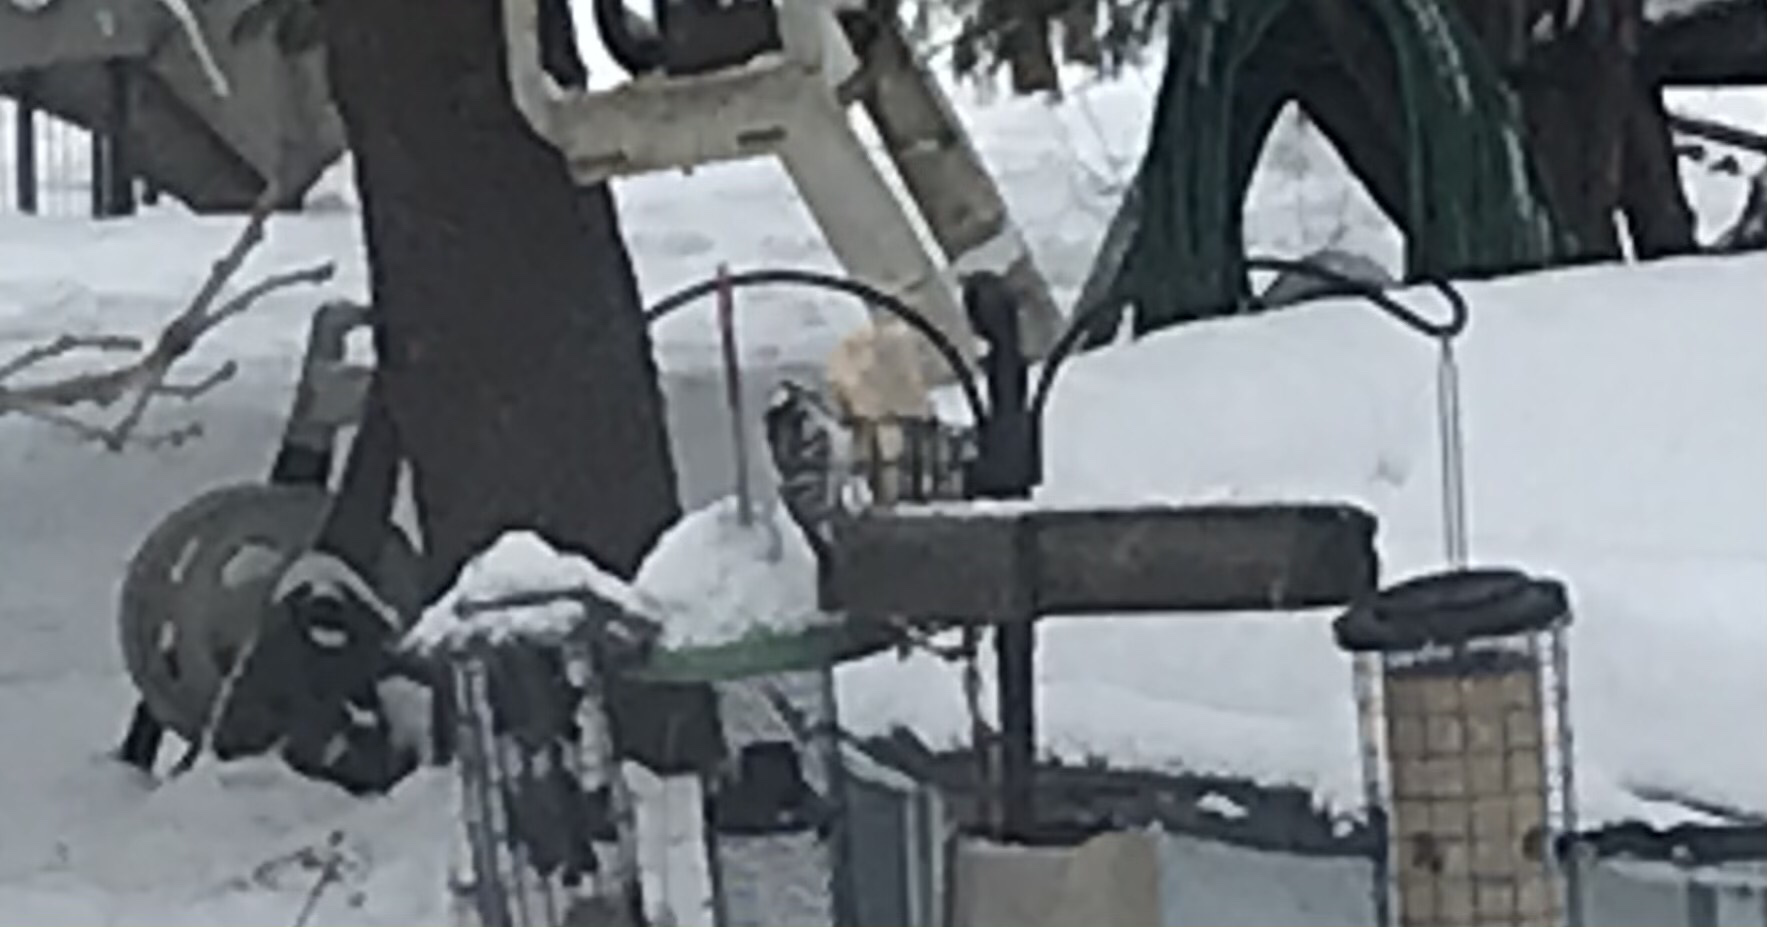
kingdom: Animalia
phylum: Chordata
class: Aves
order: Piciformes
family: Picidae
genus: Dryobates
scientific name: Dryobates pubescens
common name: Downy woodpecker
